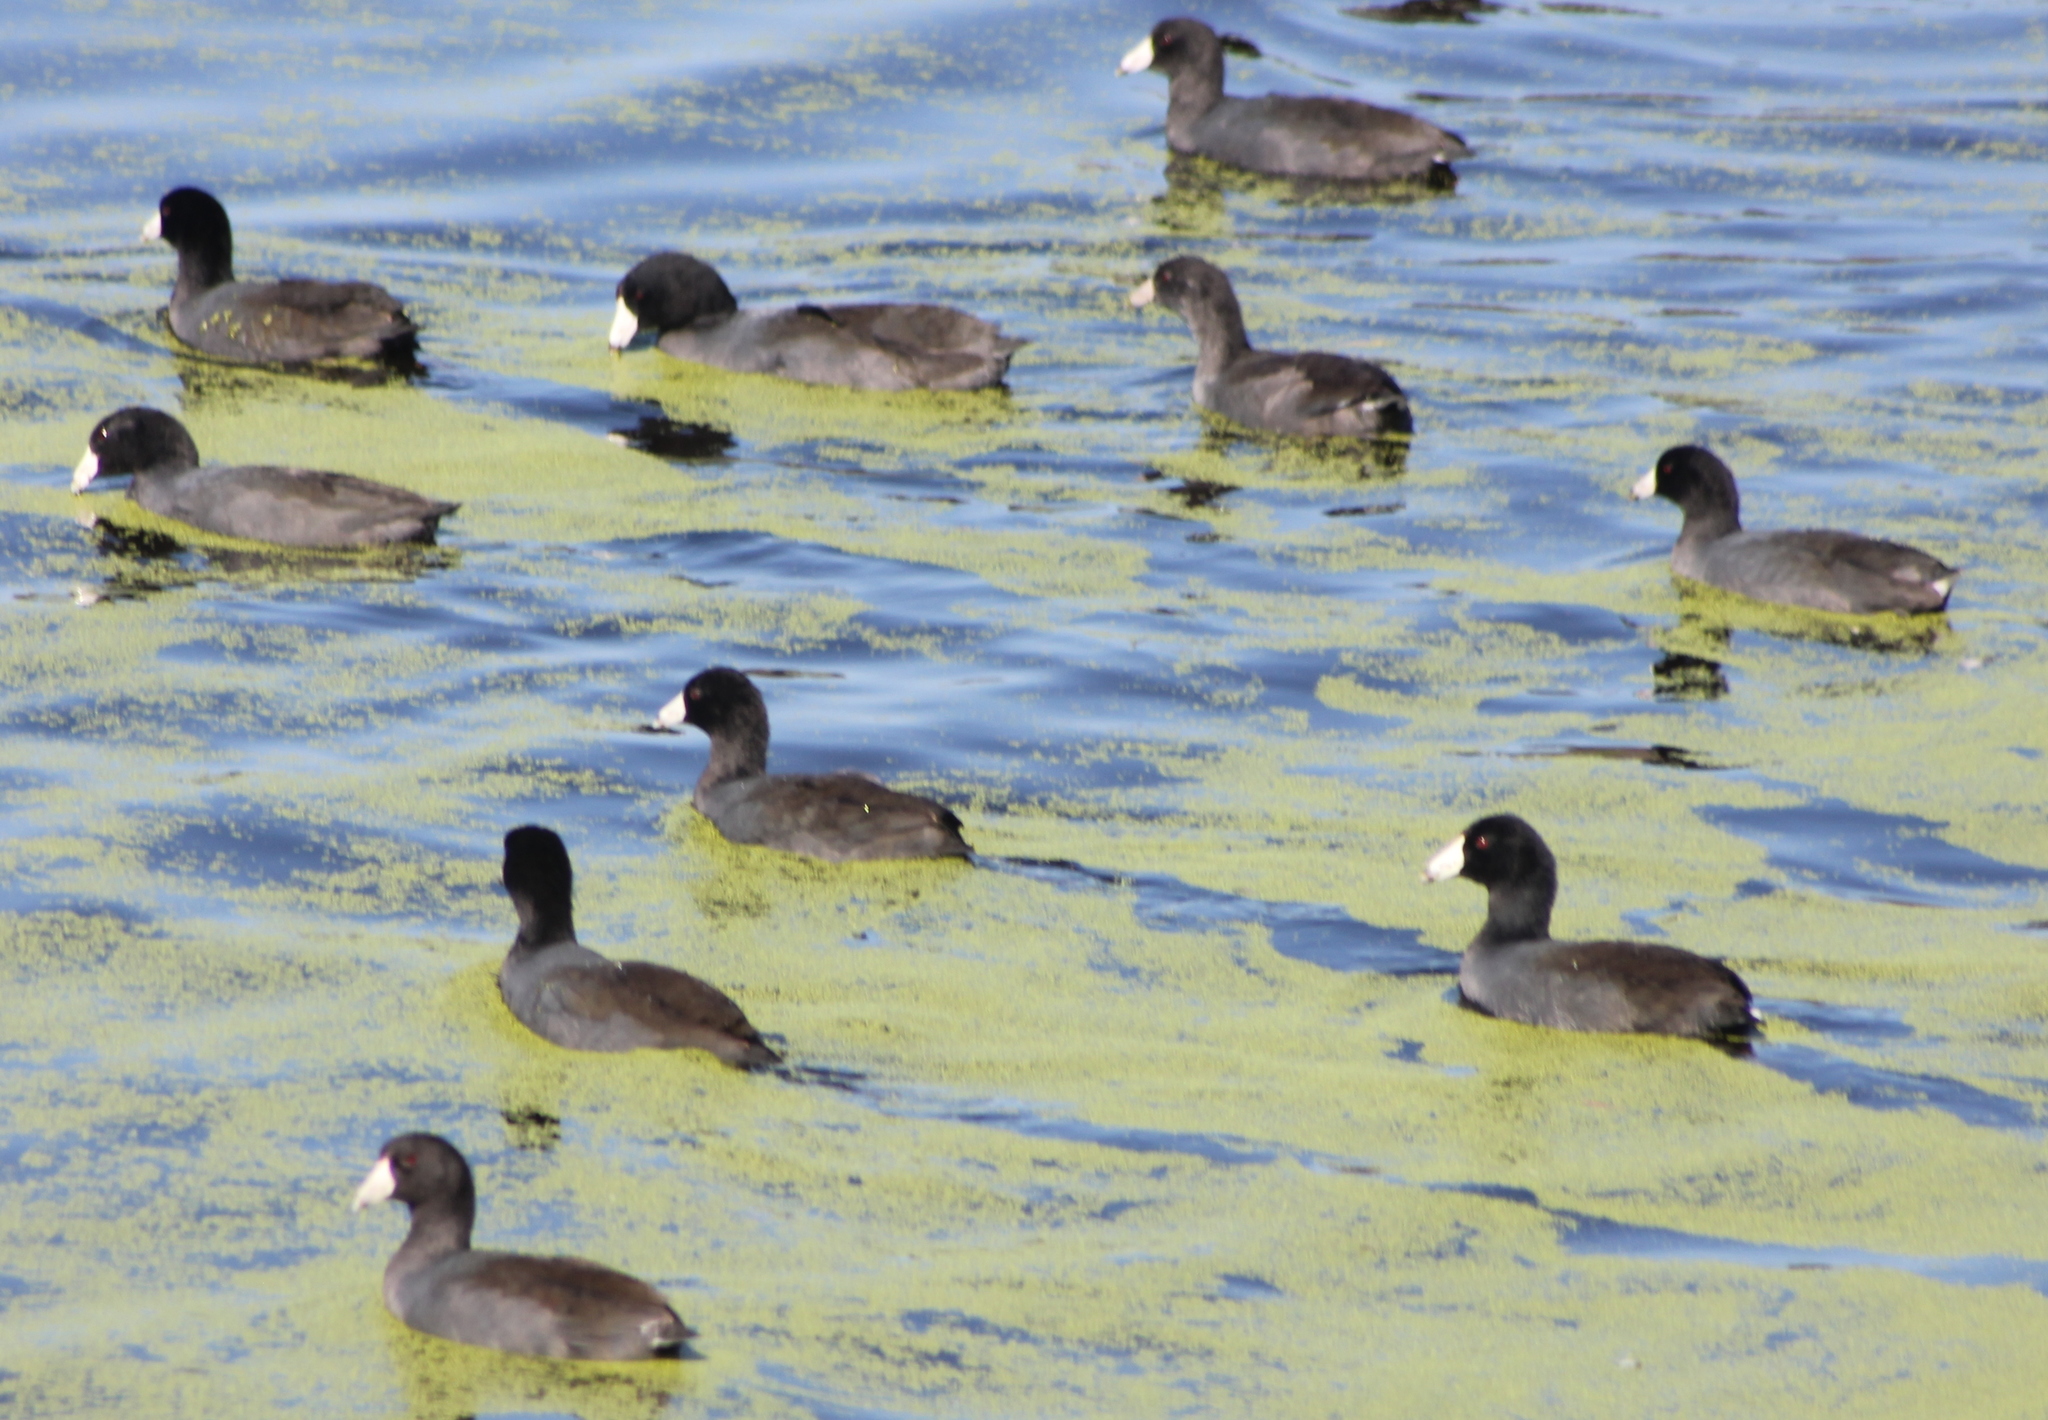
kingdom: Animalia
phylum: Chordata
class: Aves
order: Gruiformes
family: Rallidae
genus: Fulica
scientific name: Fulica americana
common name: American coot
